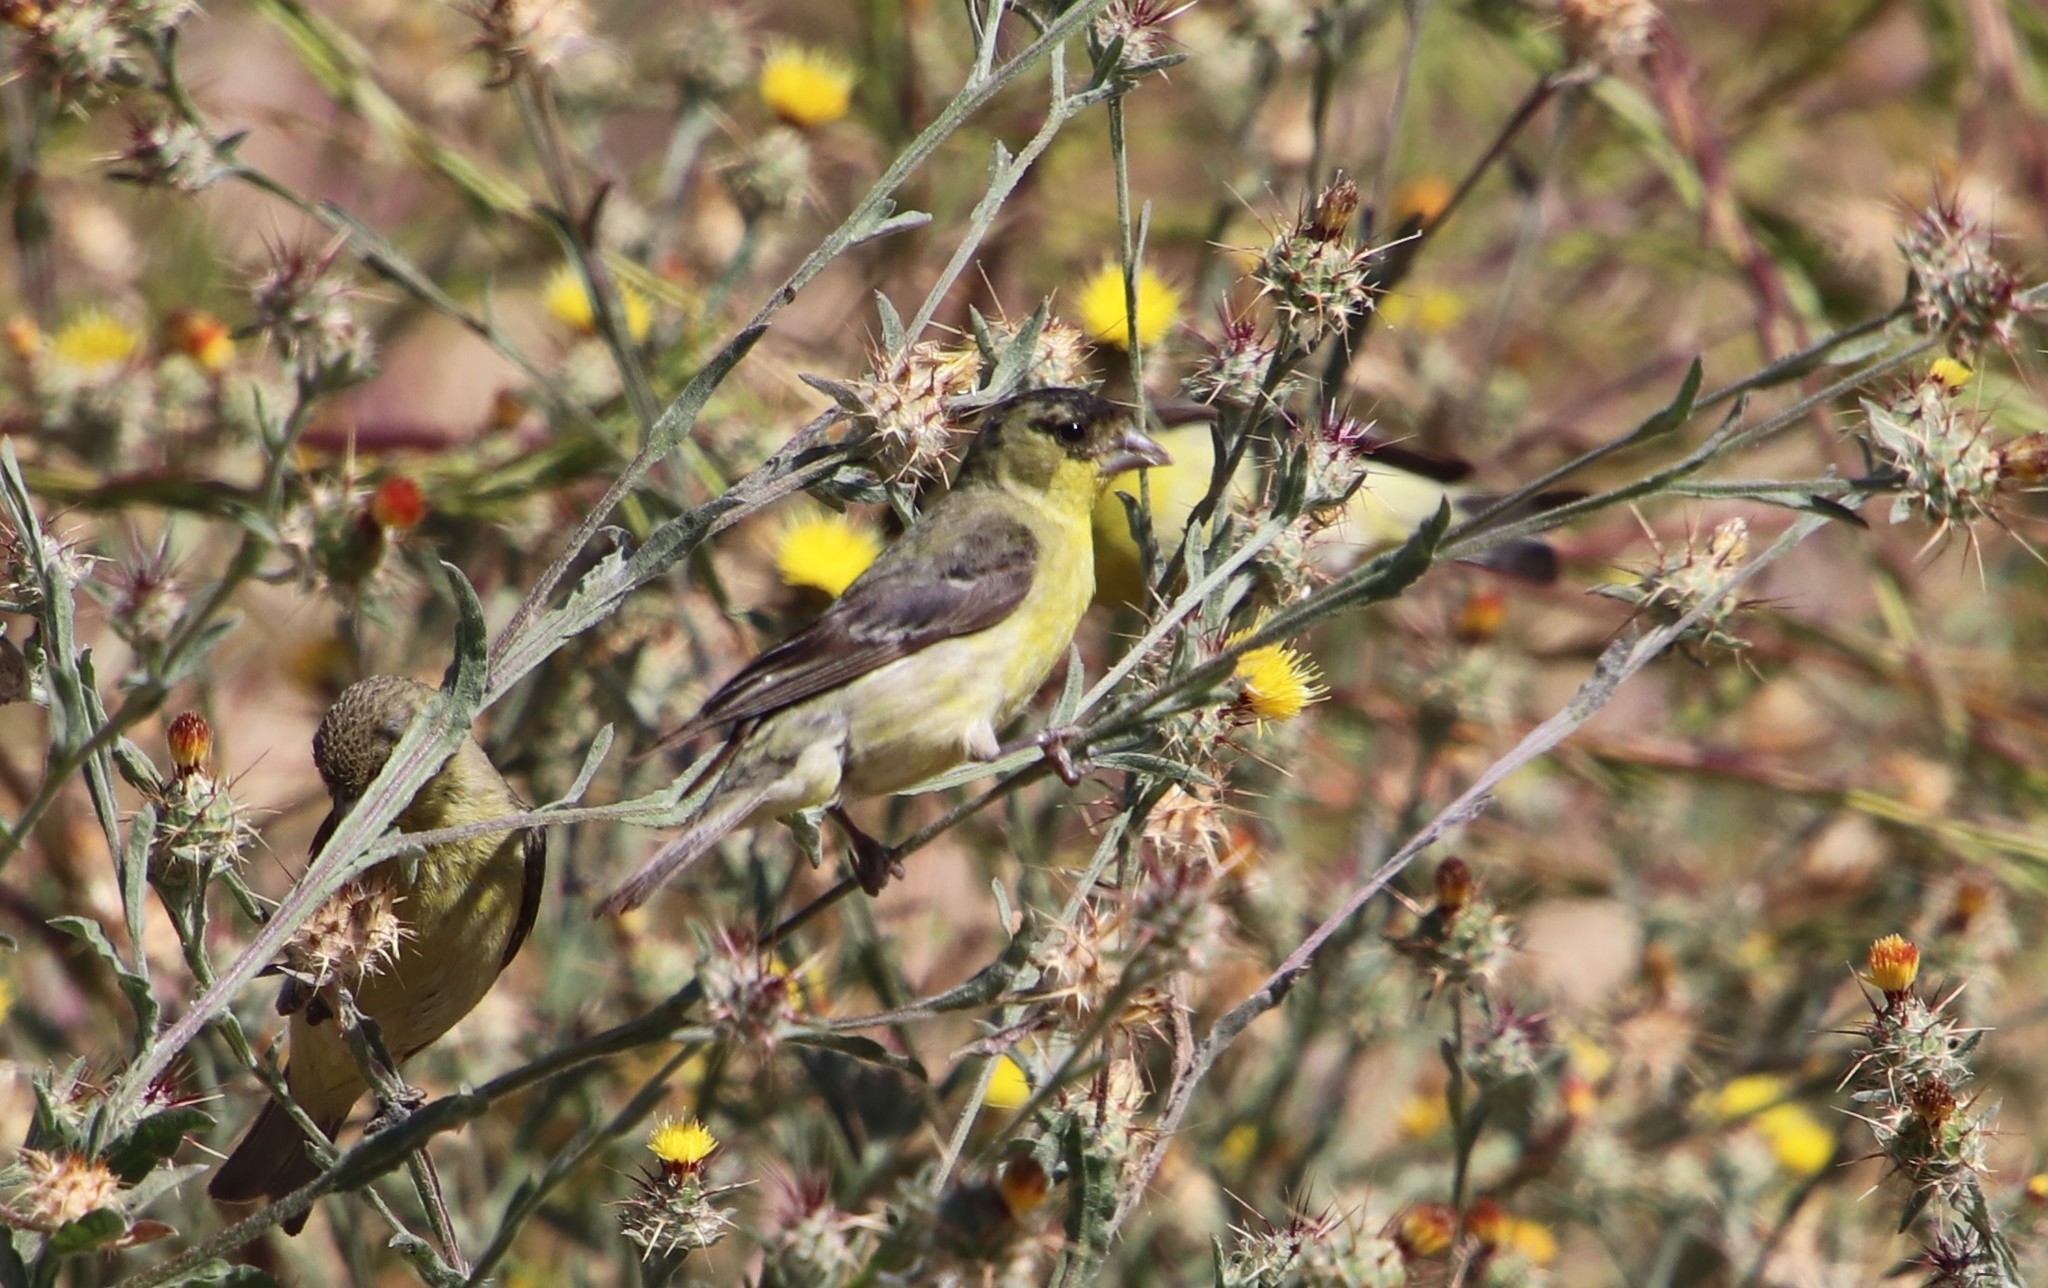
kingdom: Animalia
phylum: Chordata
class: Aves
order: Passeriformes
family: Fringillidae
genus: Spinus
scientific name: Spinus psaltria
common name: Lesser goldfinch
